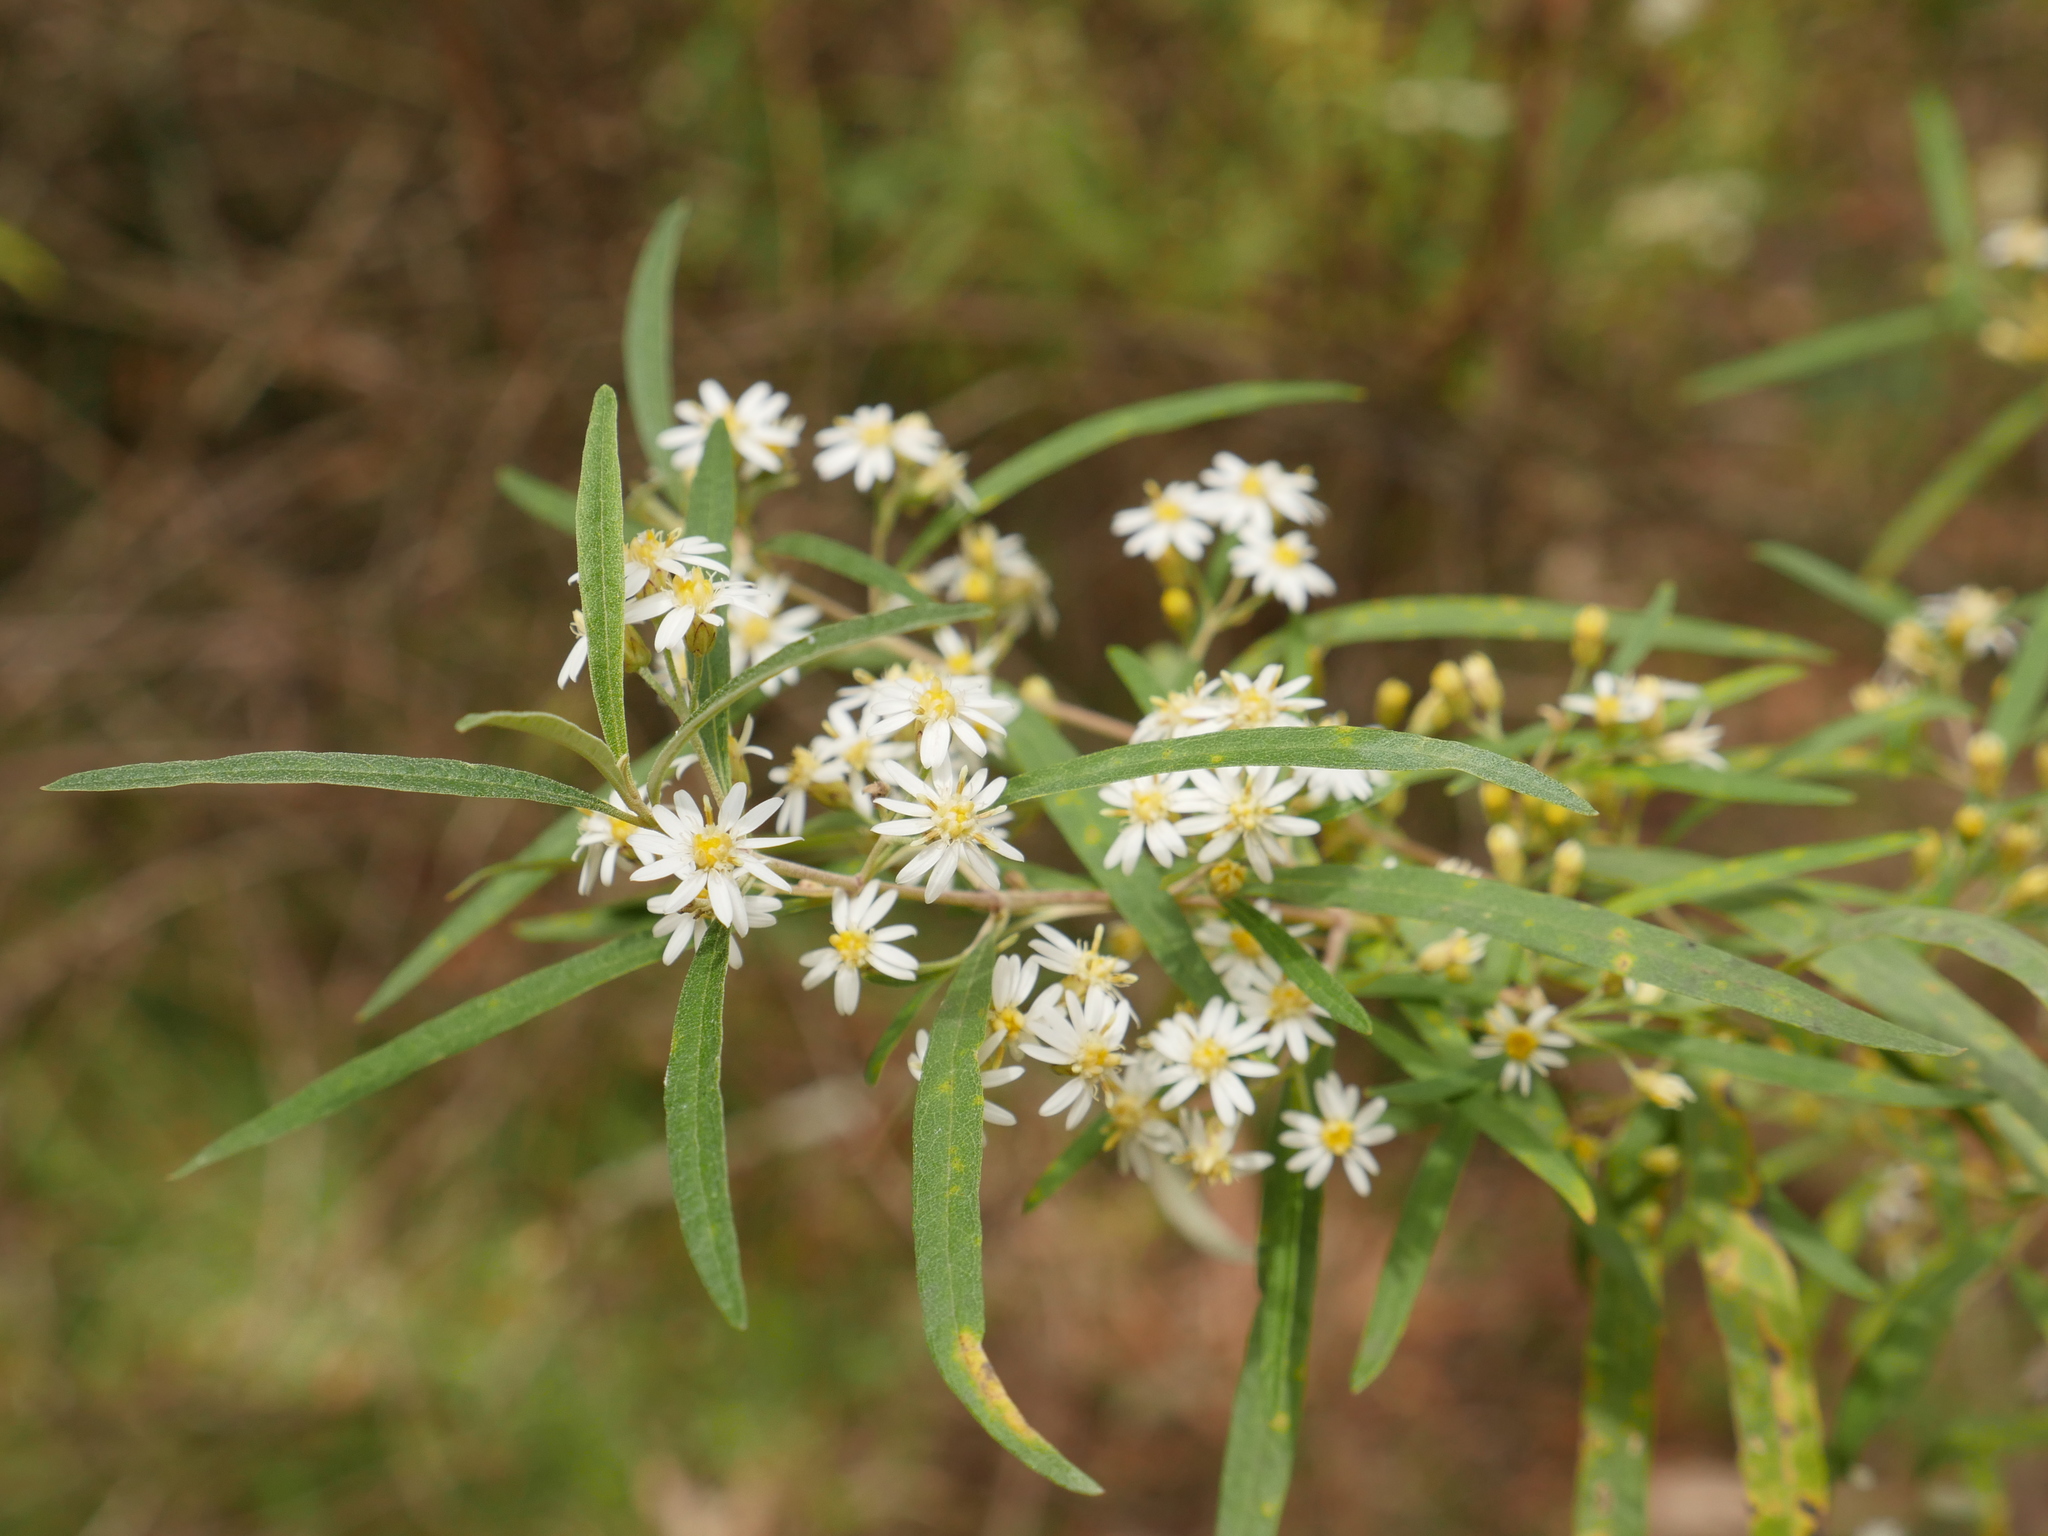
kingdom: Plantae
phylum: Tracheophyta
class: Magnoliopsida
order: Asterales
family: Asteraceae
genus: Olearia
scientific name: Olearia viscidula
